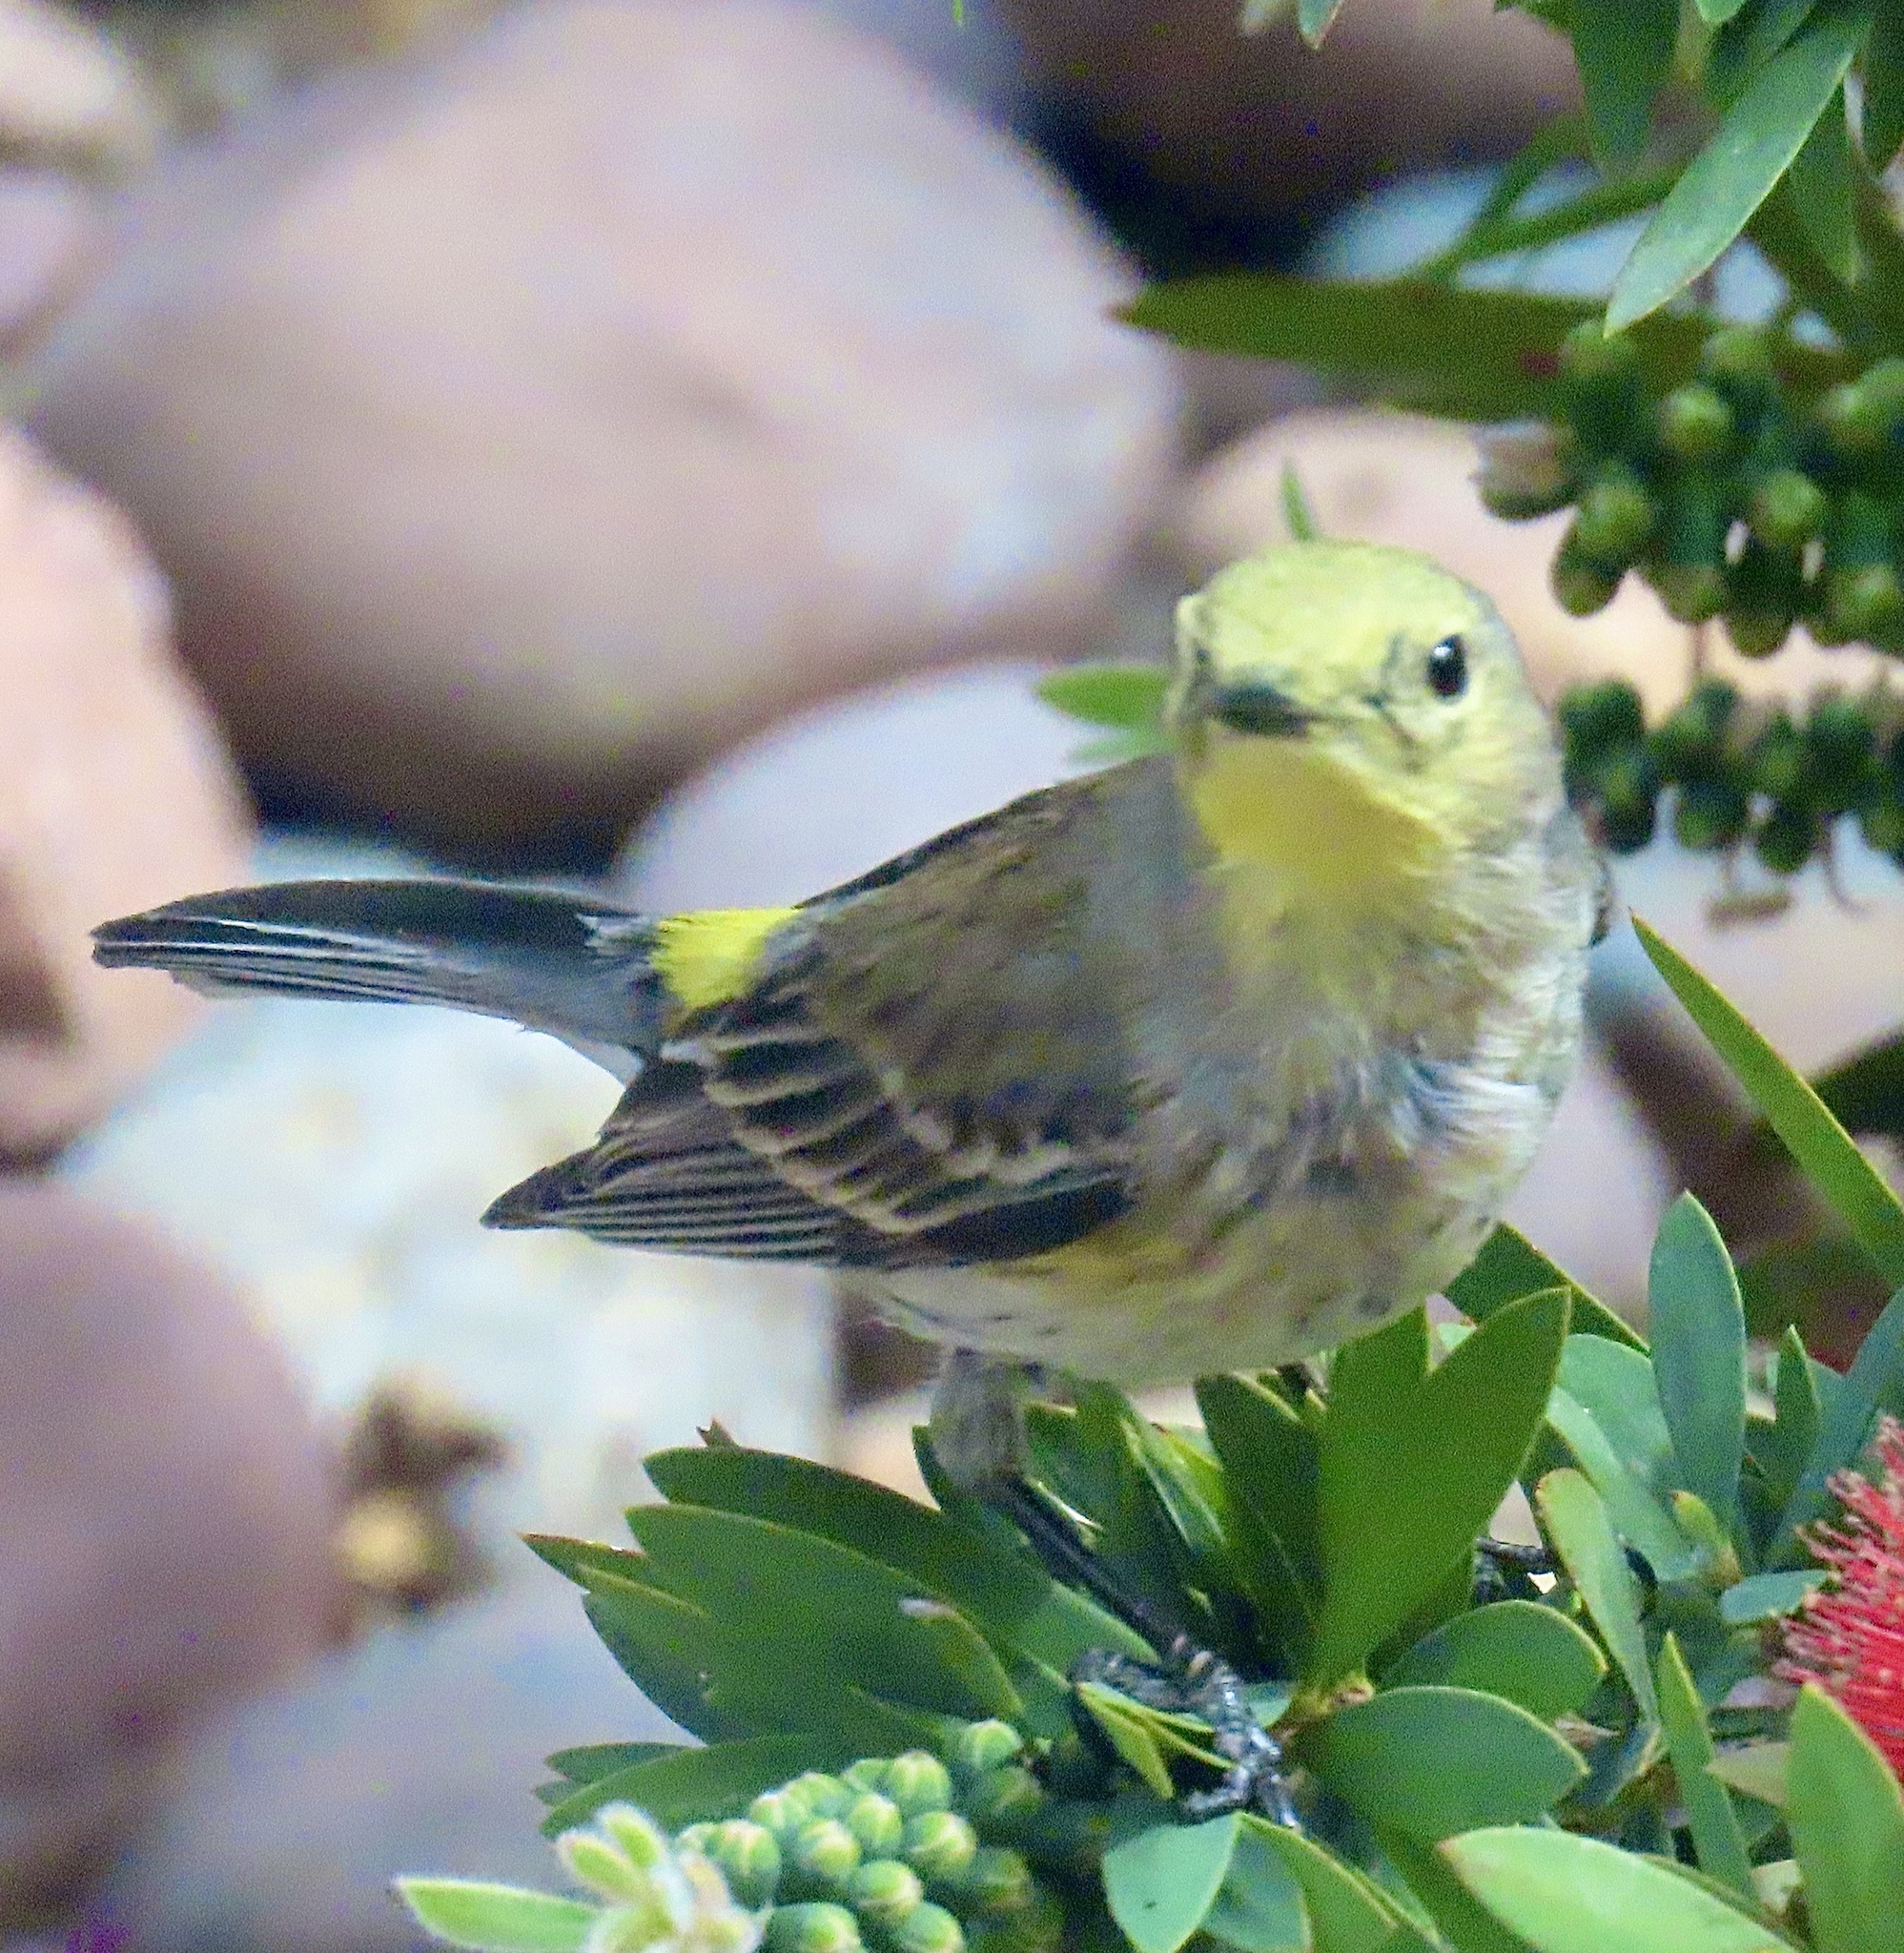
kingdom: Animalia
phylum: Chordata
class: Aves
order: Passeriformes
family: Parulidae
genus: Setophaga
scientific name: Setophaga coronata
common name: Myrtle warbler
